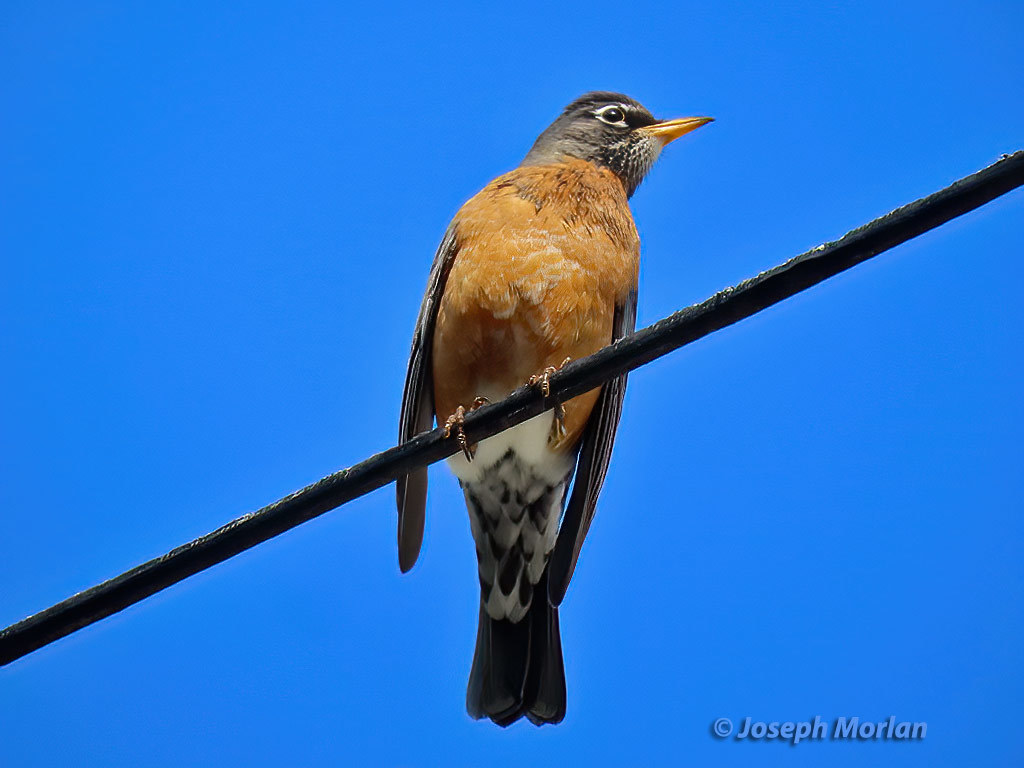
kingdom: Animalia
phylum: Chordata
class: Aves
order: Passeriformes
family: Turdidae
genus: Turdus
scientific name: Turdus migratorius
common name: American robin
